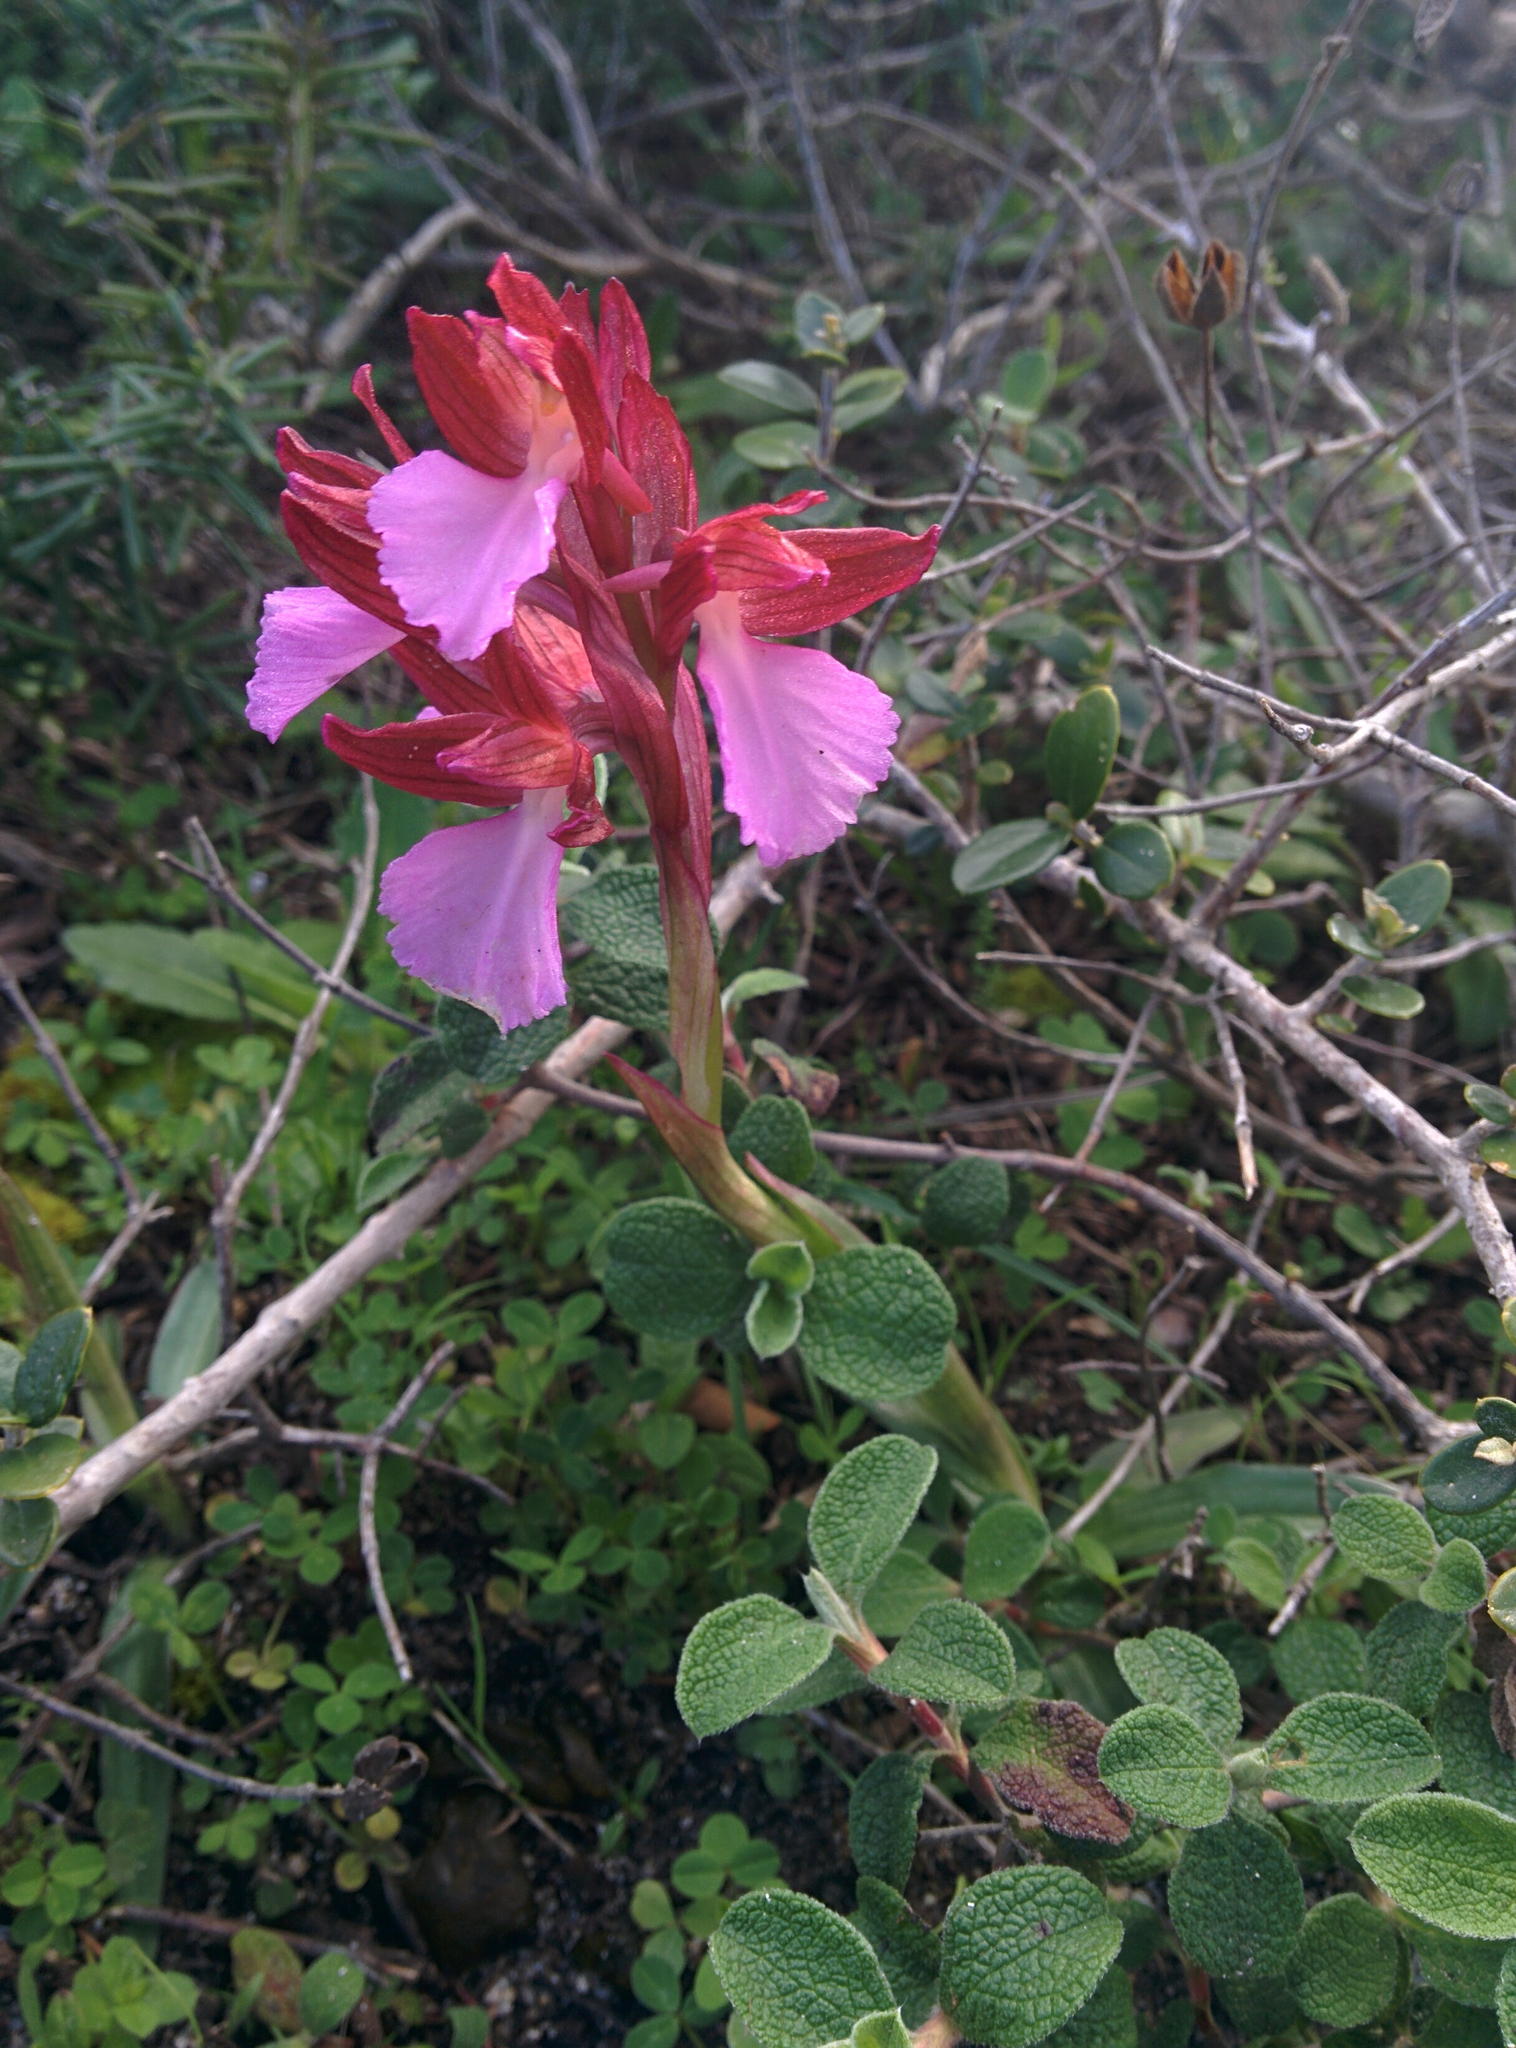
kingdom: Plantae
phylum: Tracheophyta
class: Liliopsida
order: Asparagales
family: Orchidaceae
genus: Anacamptis
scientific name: Anacamptis papilionacea
